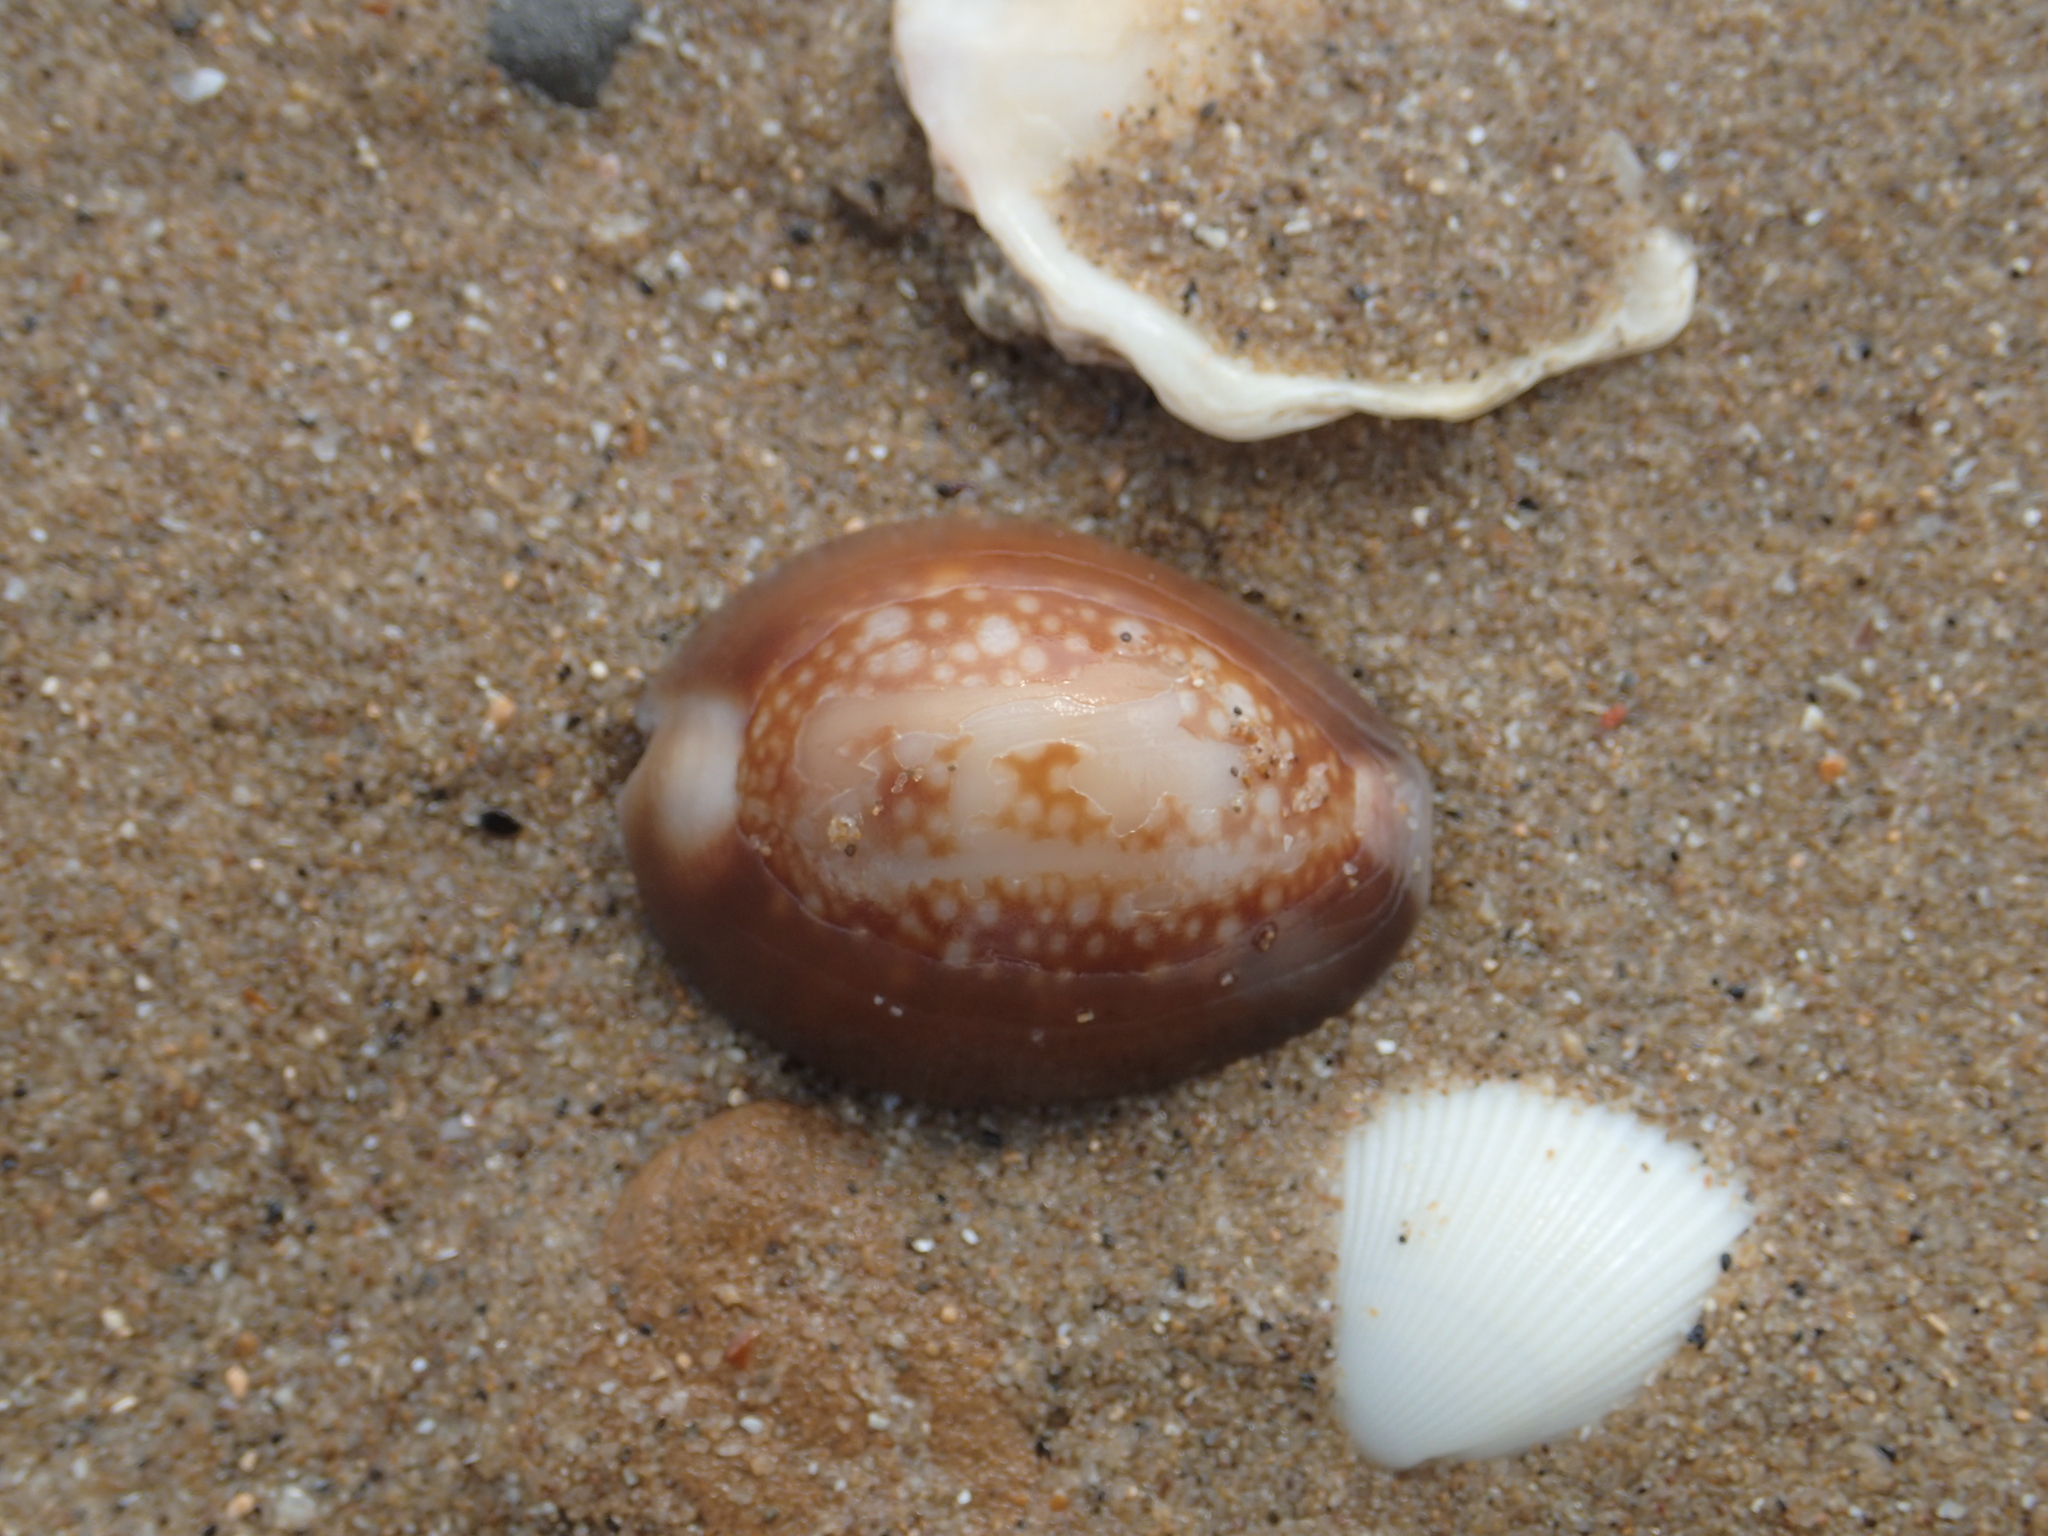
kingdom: Animalia
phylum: Mollusca
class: Gastropoda
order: Littorinimorpha
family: Cypraeidae
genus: Monetaria
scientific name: Monetaria caputserpentis
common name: Serpent's head cowrie
